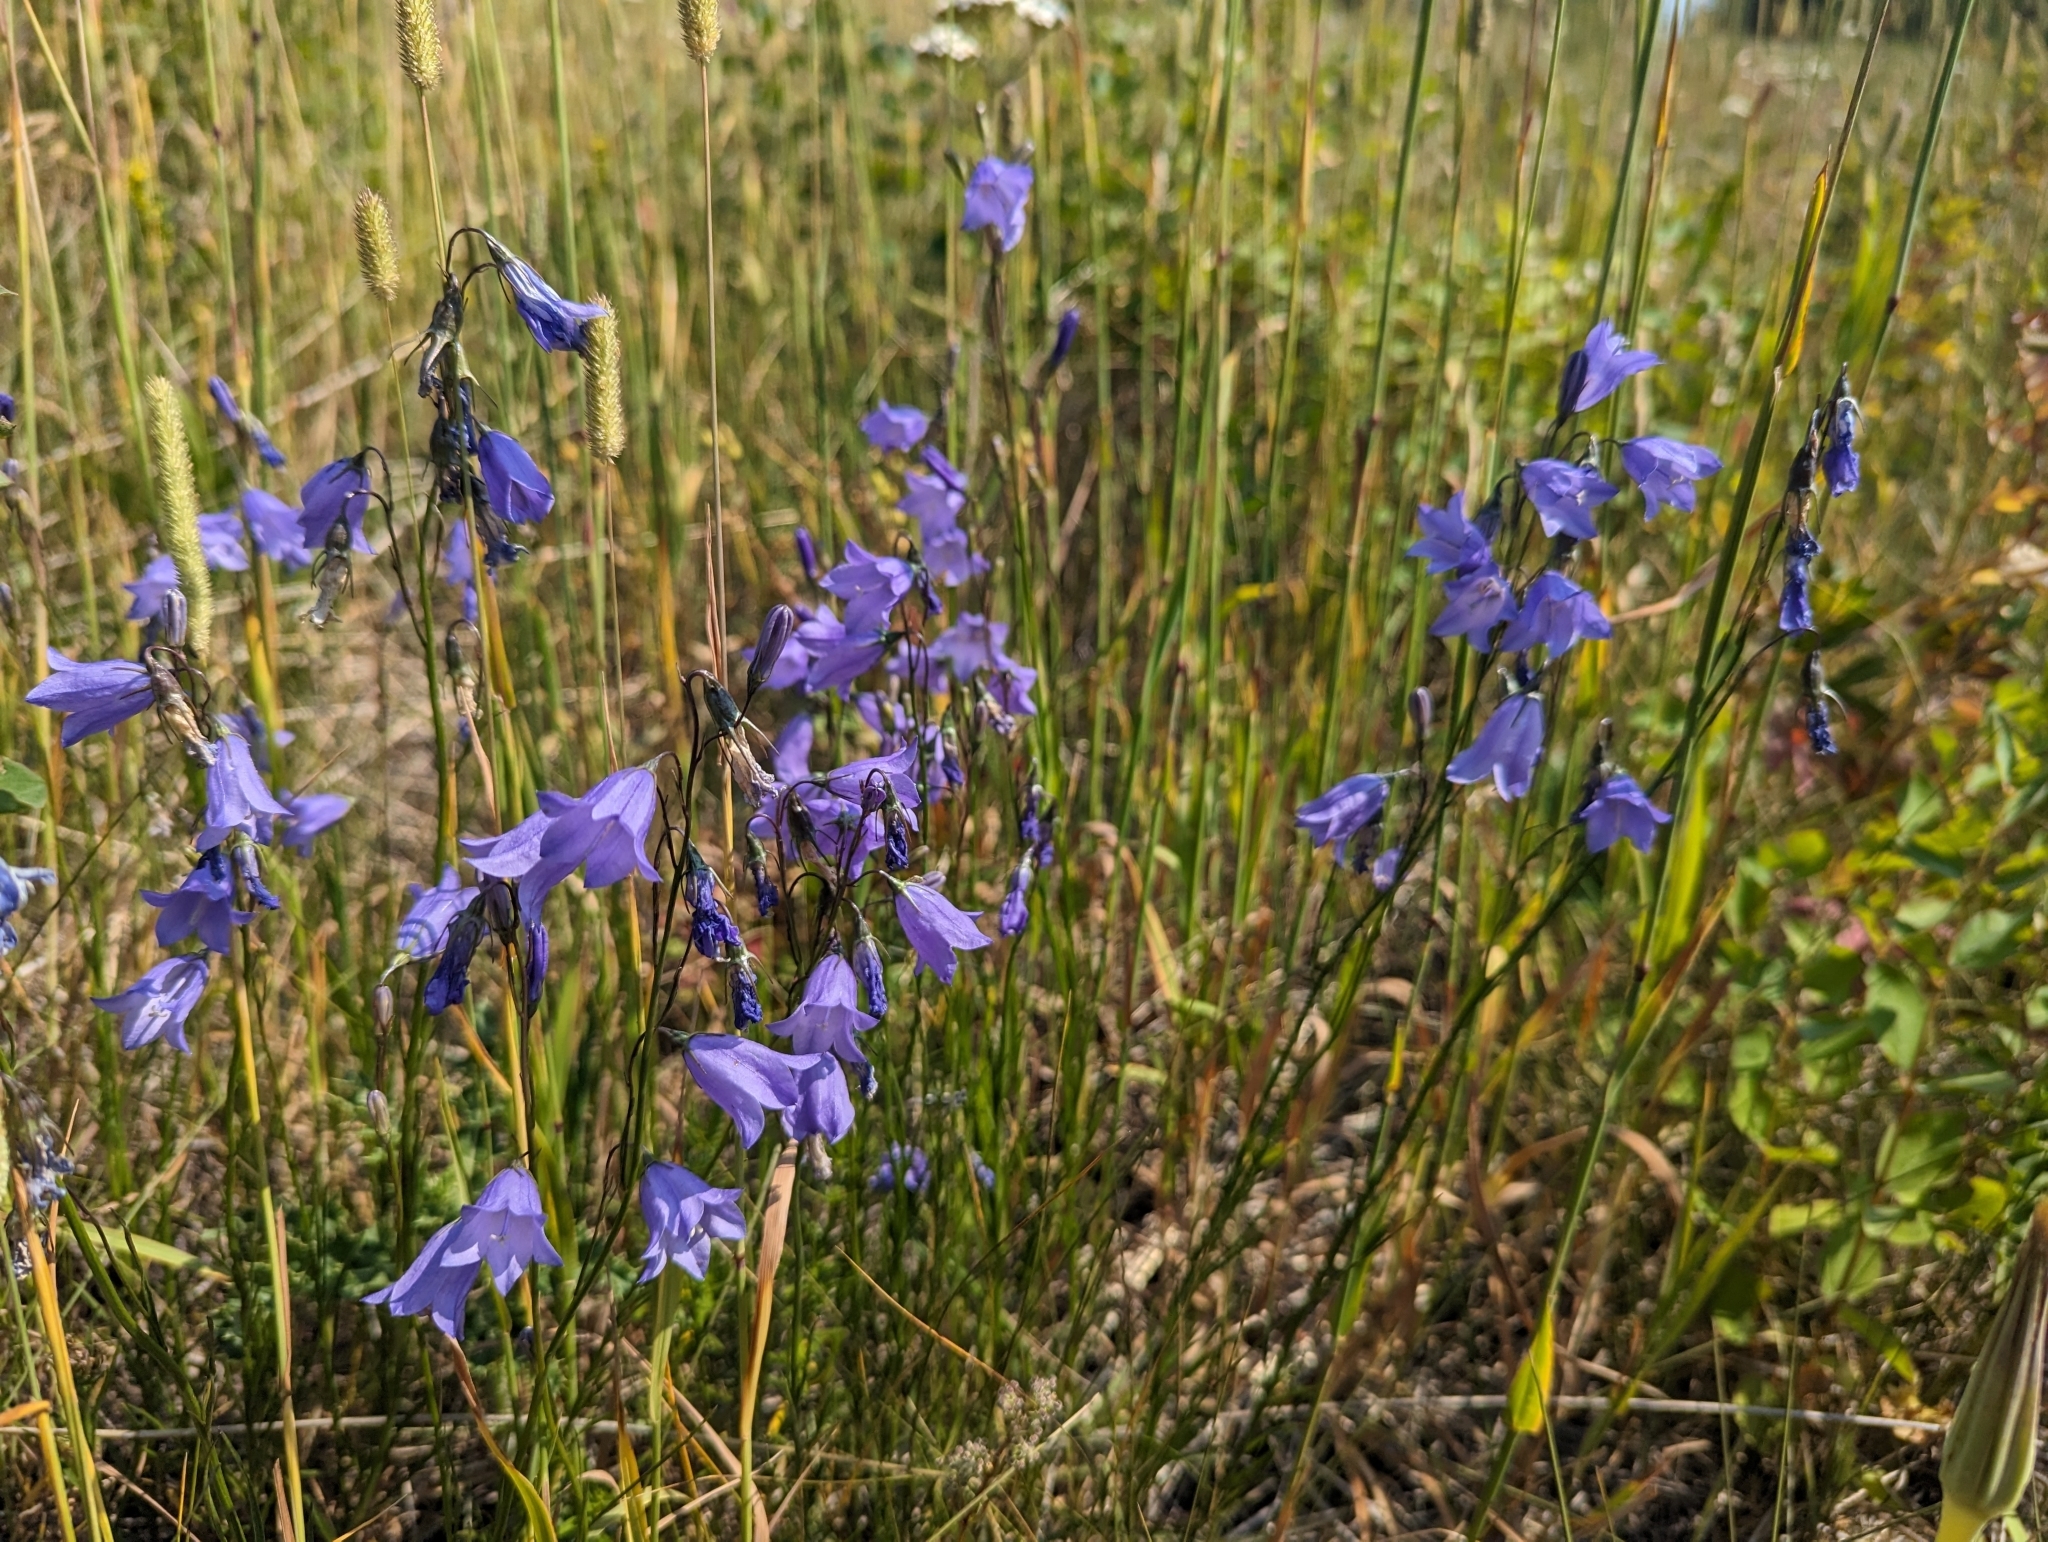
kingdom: Plantae
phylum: Tracheophyta
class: Magnoliopsida
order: Asterales
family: Campanulaceae
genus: Campanula
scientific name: Campanula alaskana
